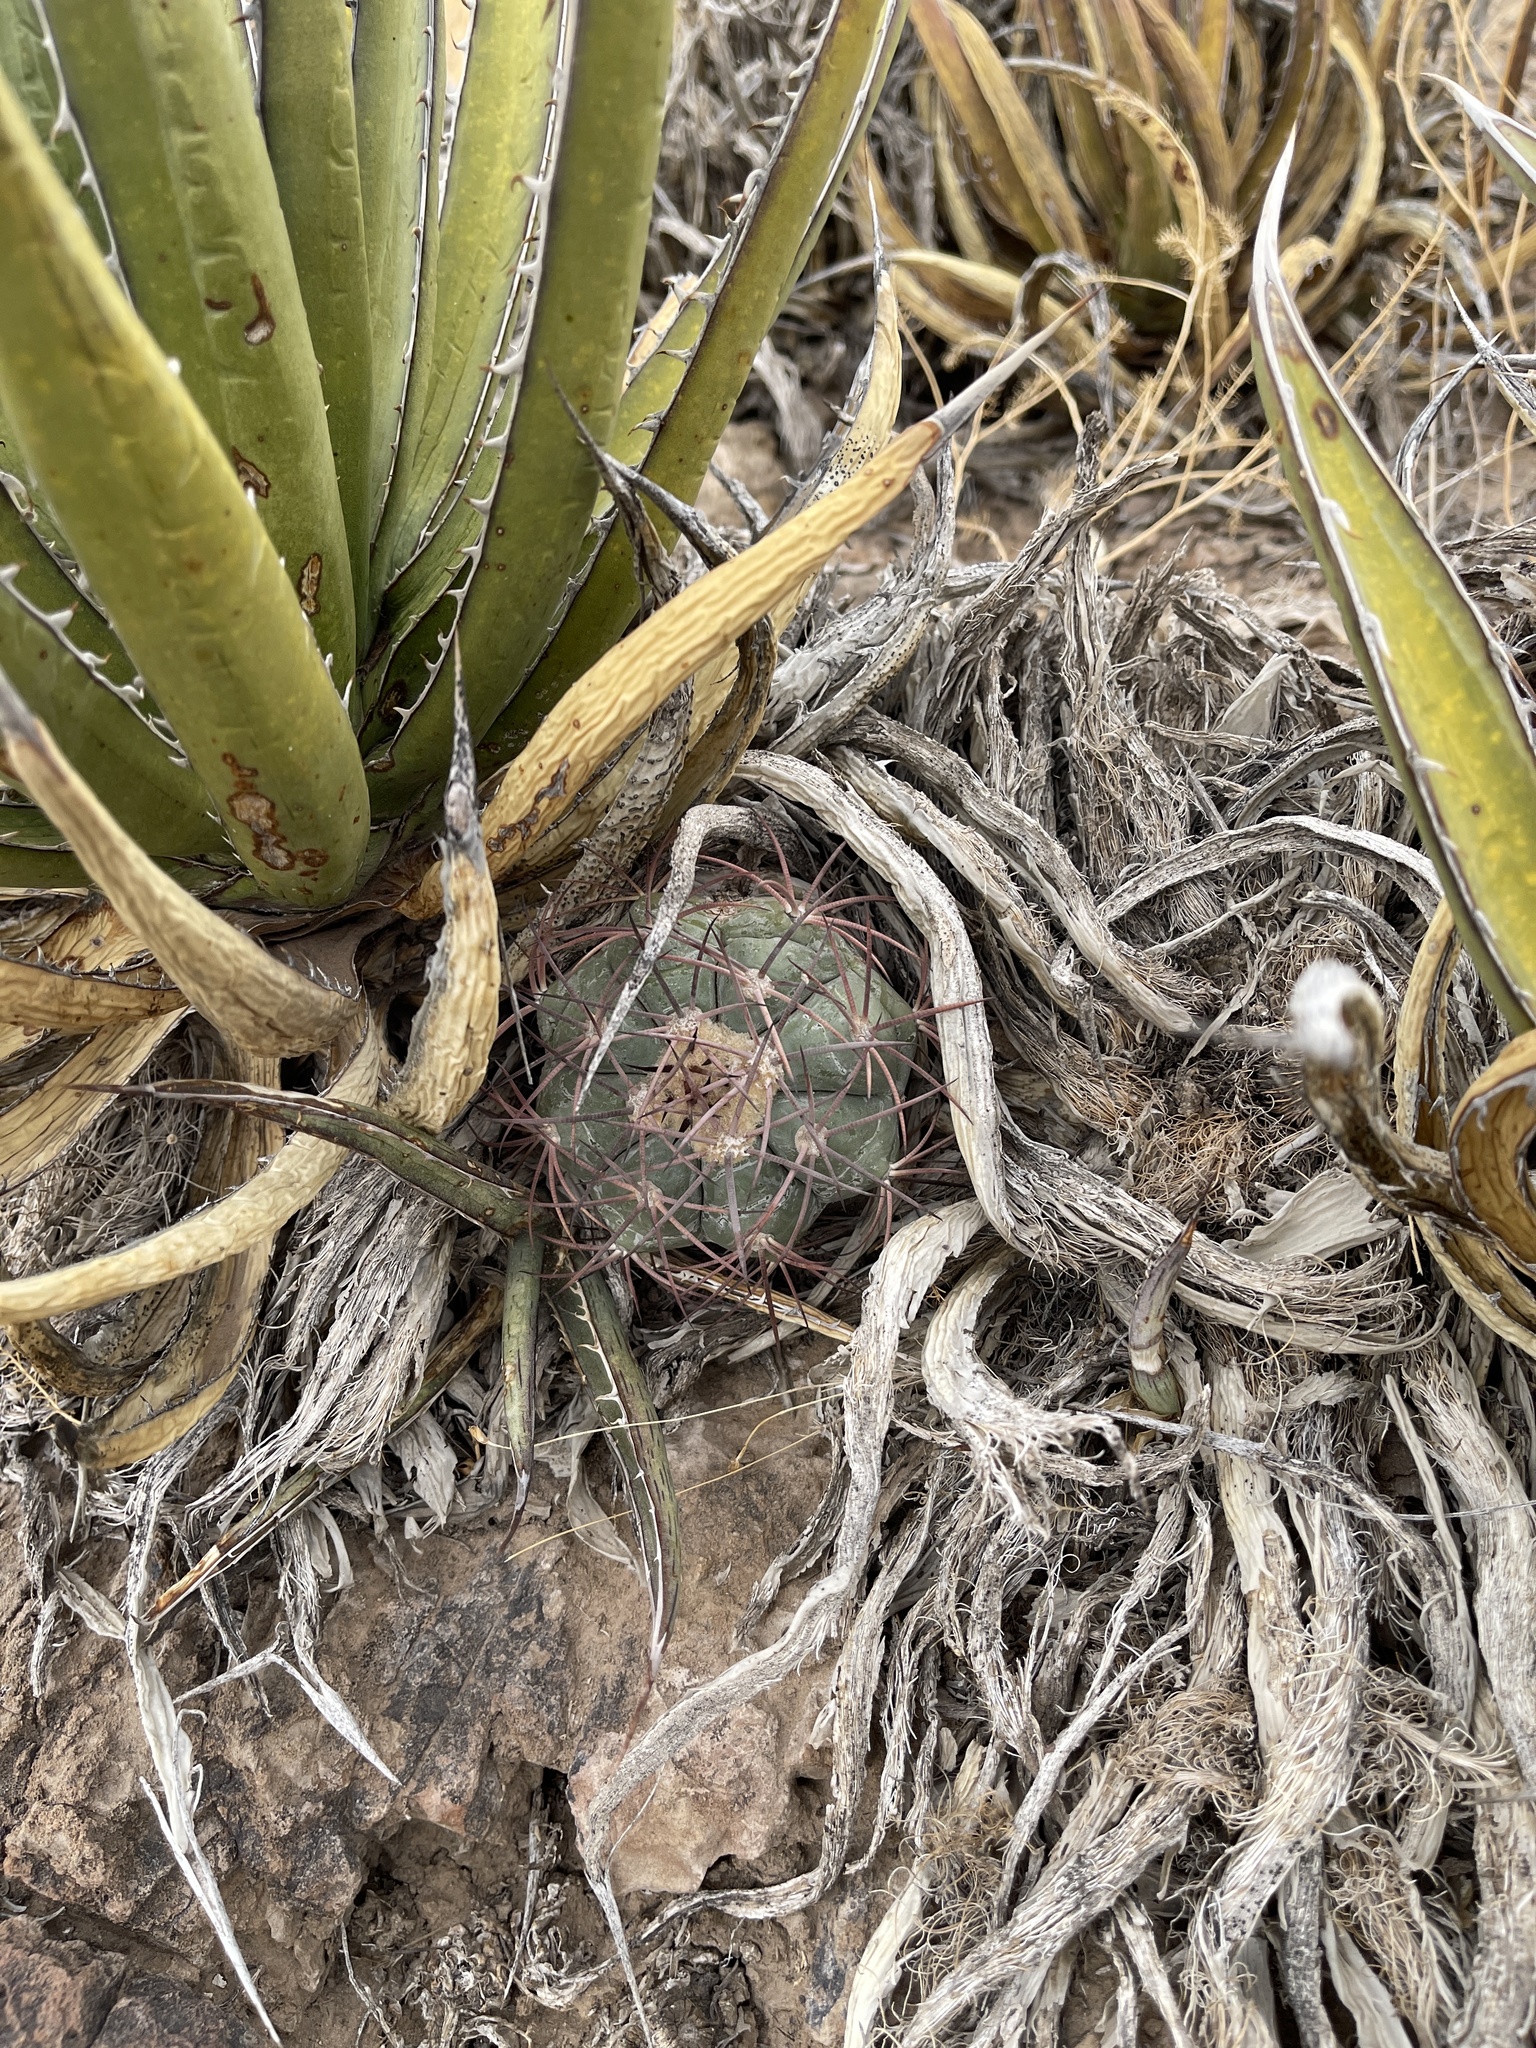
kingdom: Plantae
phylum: Tracheophyta
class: Magnoliopsida
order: Caryophyllales
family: Cactaceae
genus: Echinocactus
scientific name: Echinocactus horizonthalonius
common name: Devilshead
